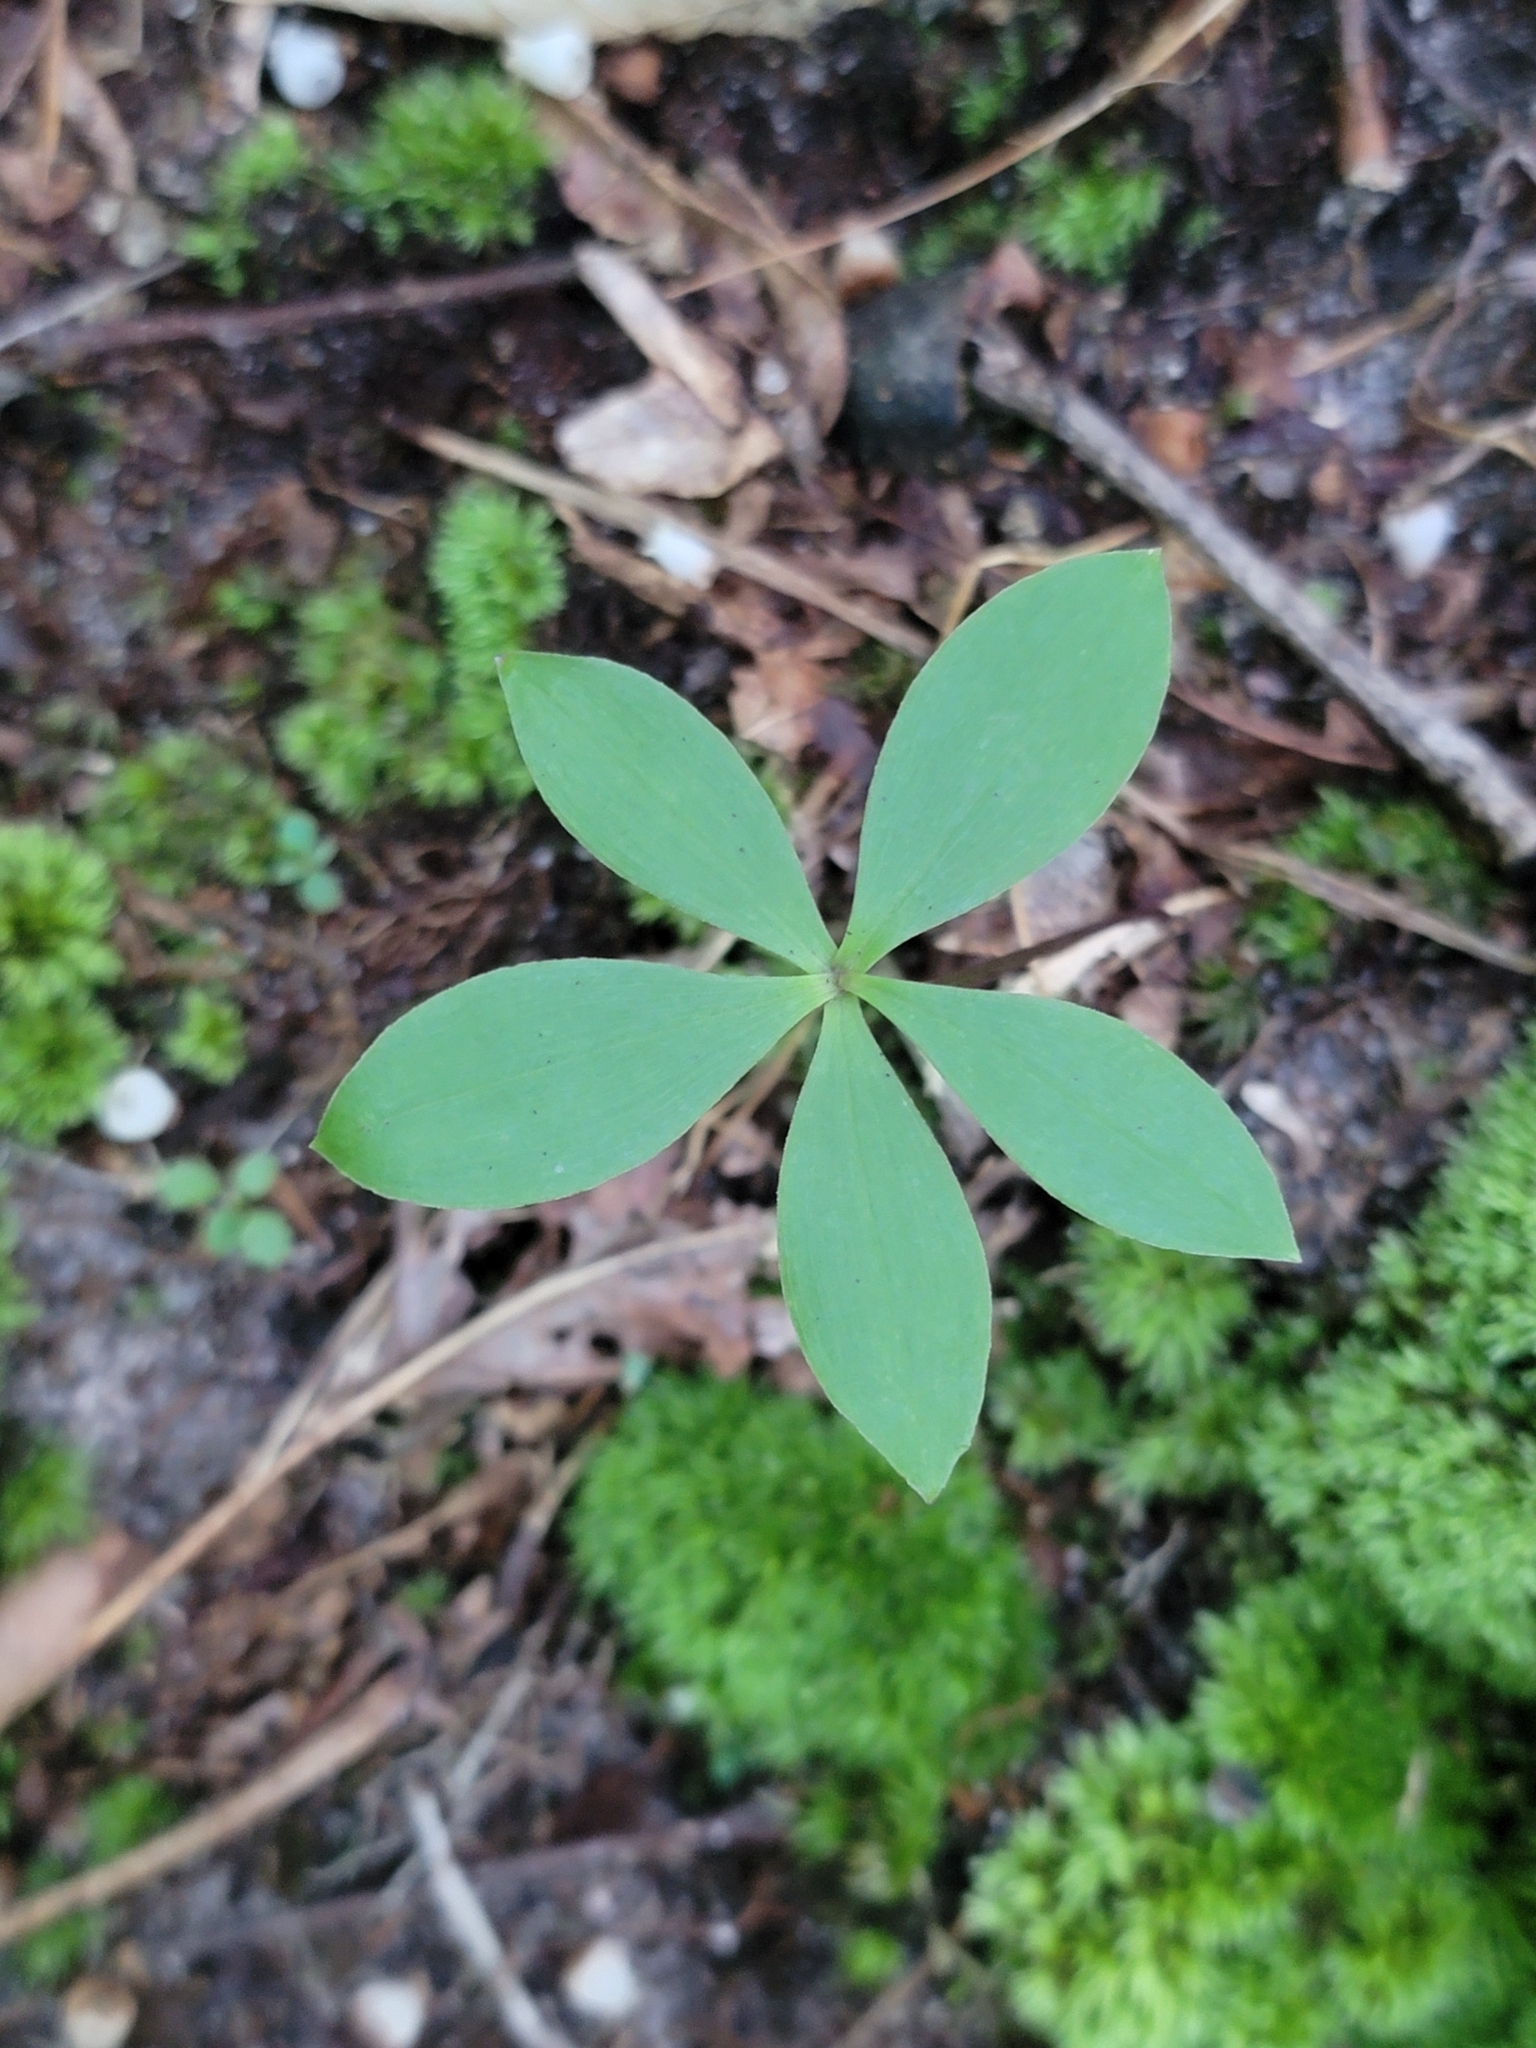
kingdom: Plantae
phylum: Tracheophyta
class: Liliopsida
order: Asparagales
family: Orchidaceae
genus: Isotria
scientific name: Isotria verticillata
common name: Large whorled pogonia
